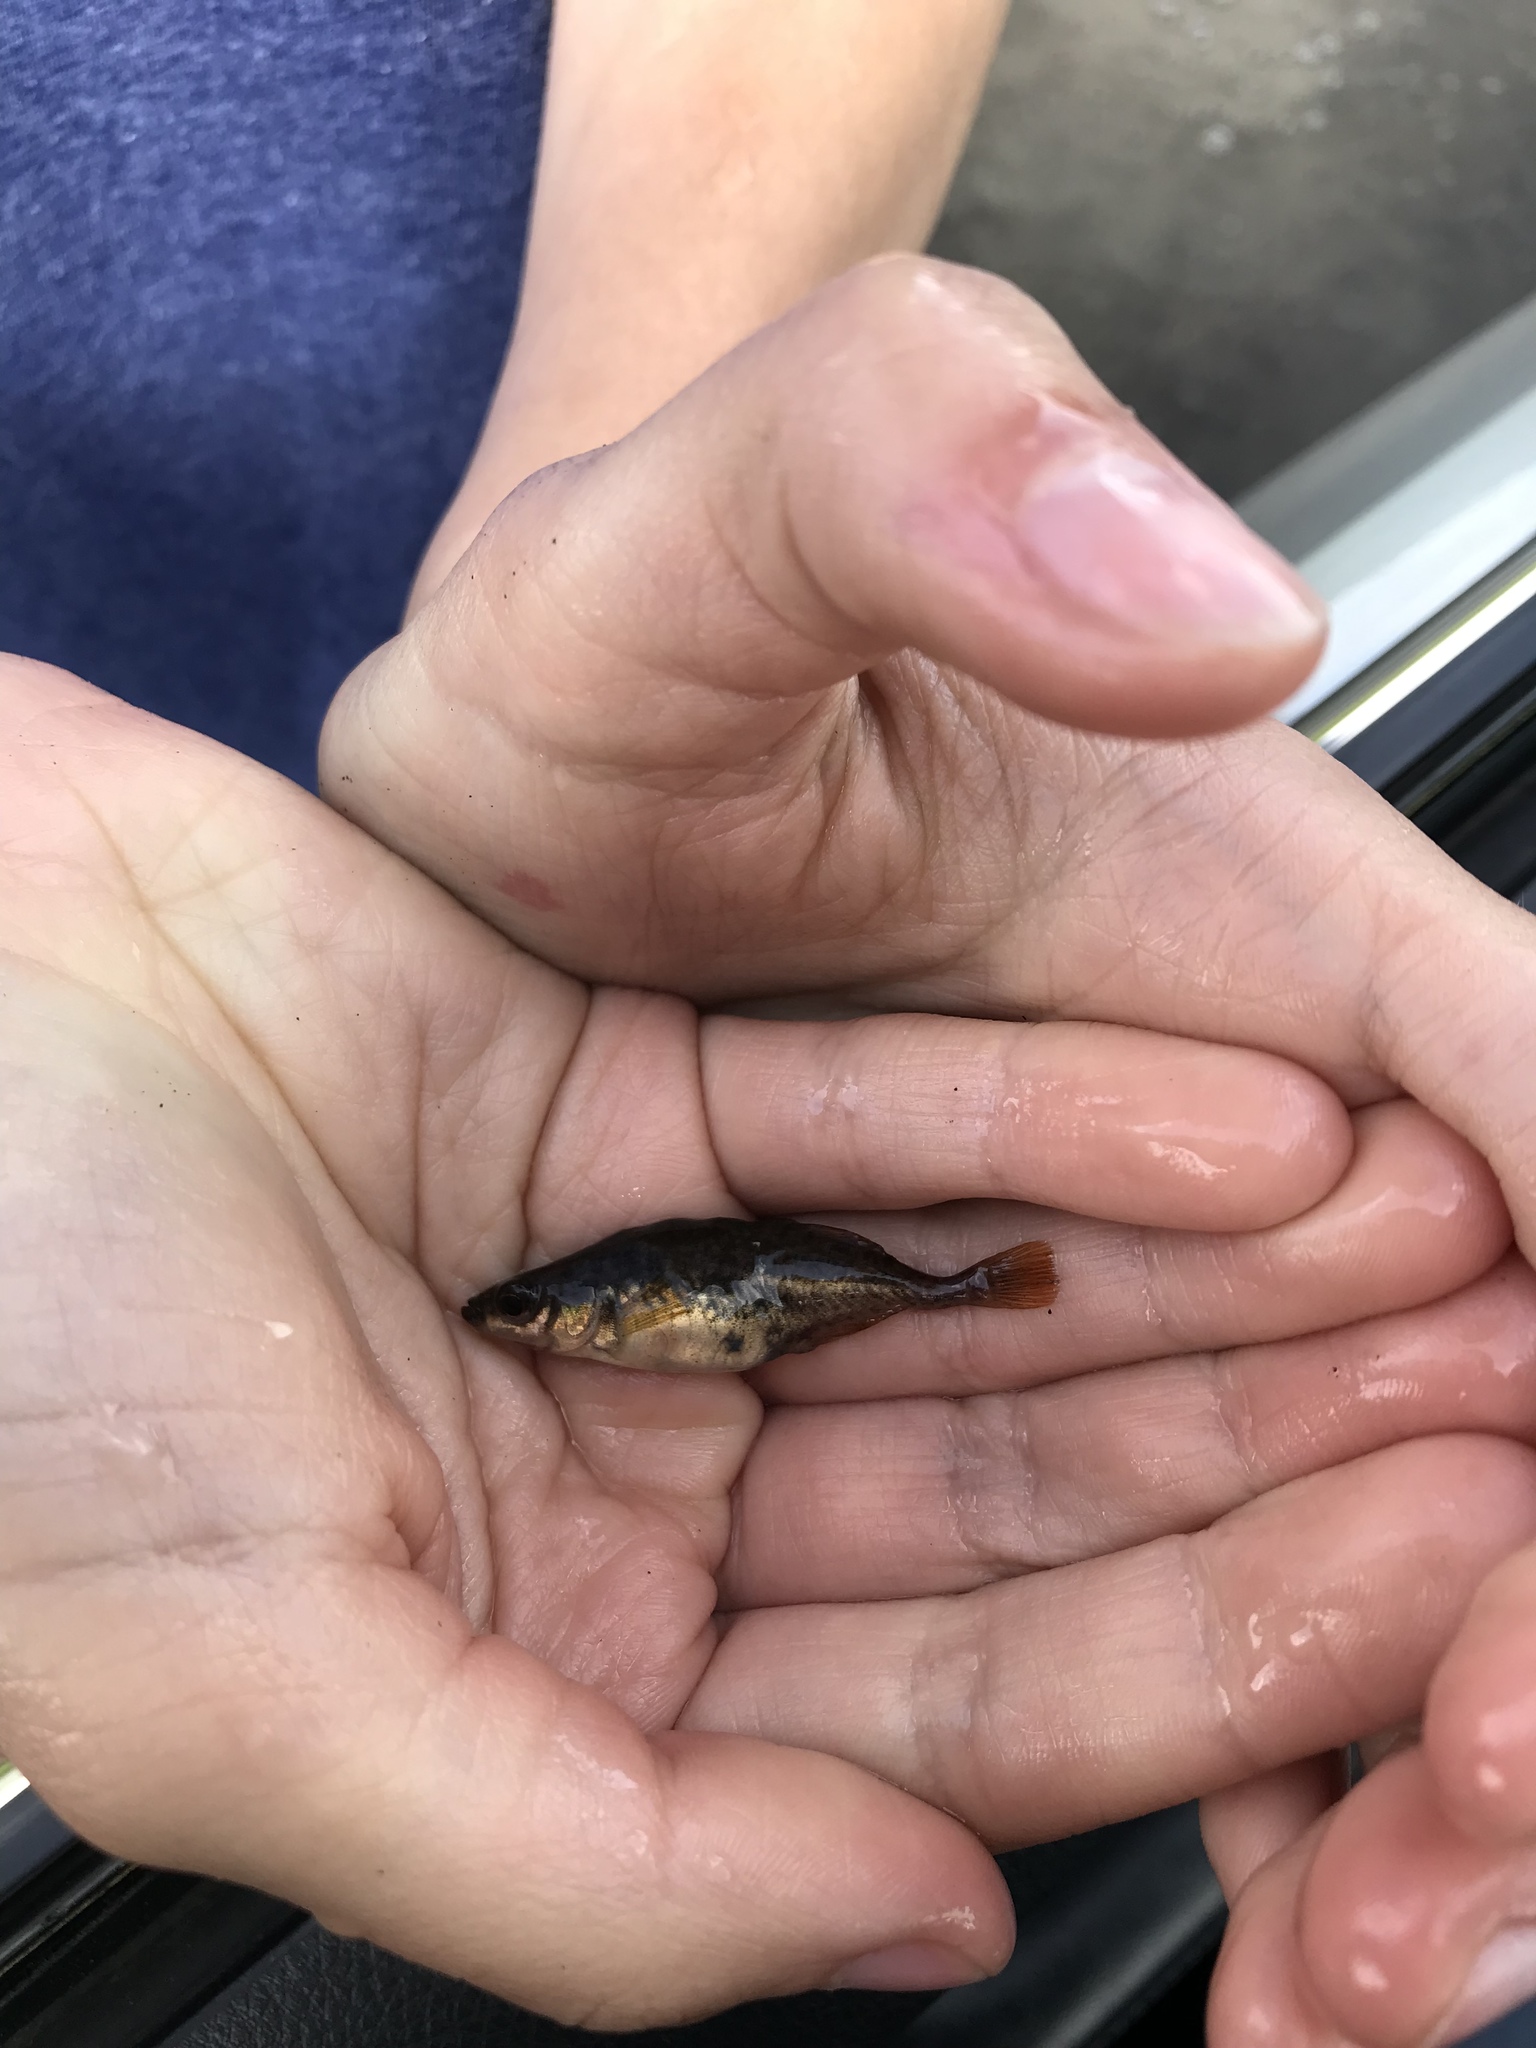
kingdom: Animalia
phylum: Chordata
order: Gasterosteiformes
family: Gasterosteidae
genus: Culaea
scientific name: Culaea inconstans
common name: Brook stickleback
